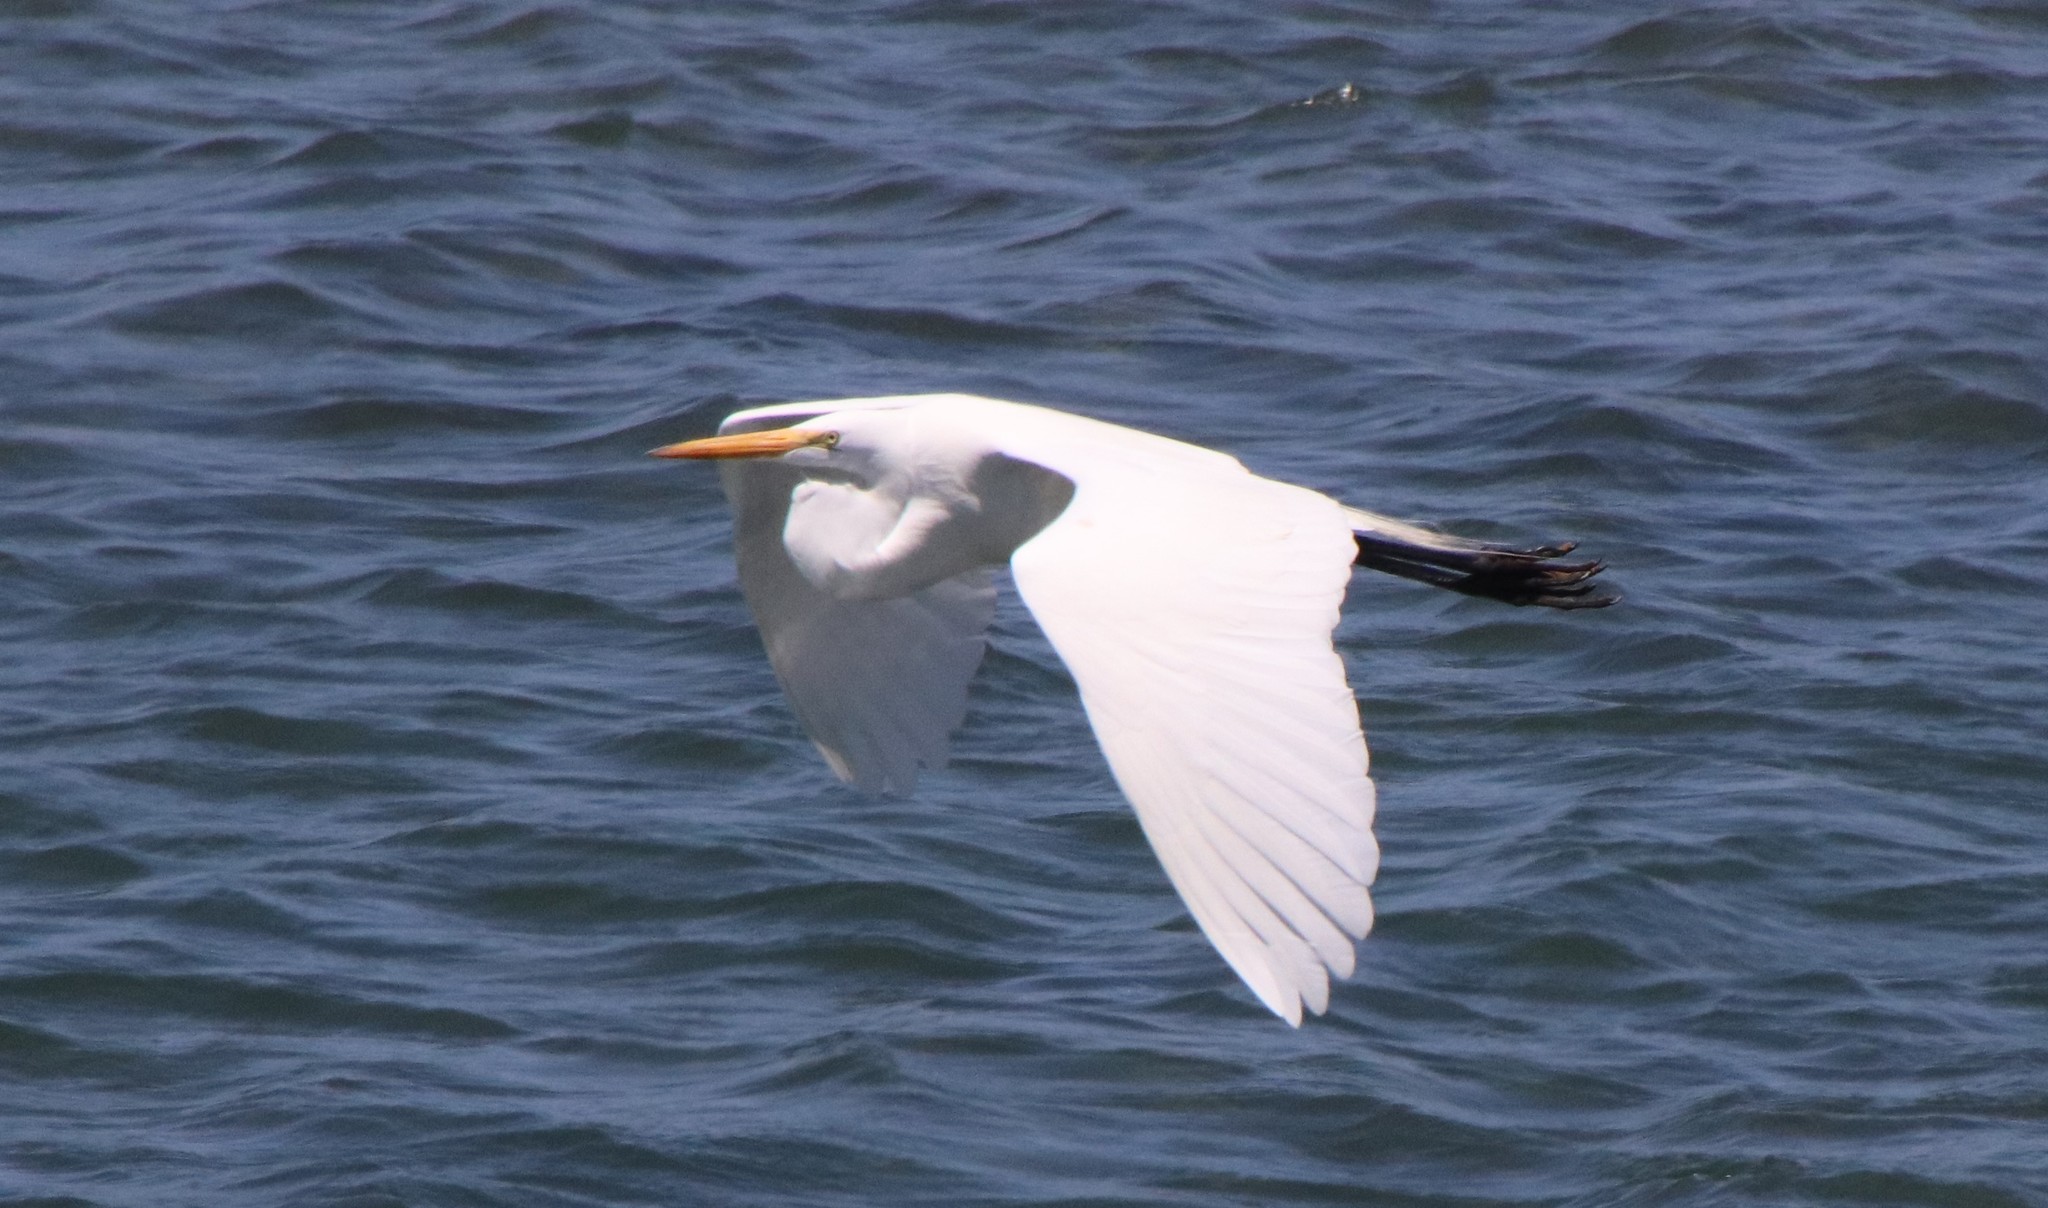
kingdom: Animalia
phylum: Chordata
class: Aves
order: Pelecaniformes
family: Ardeidae
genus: Ardea
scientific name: Ardea alba
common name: Great egret
